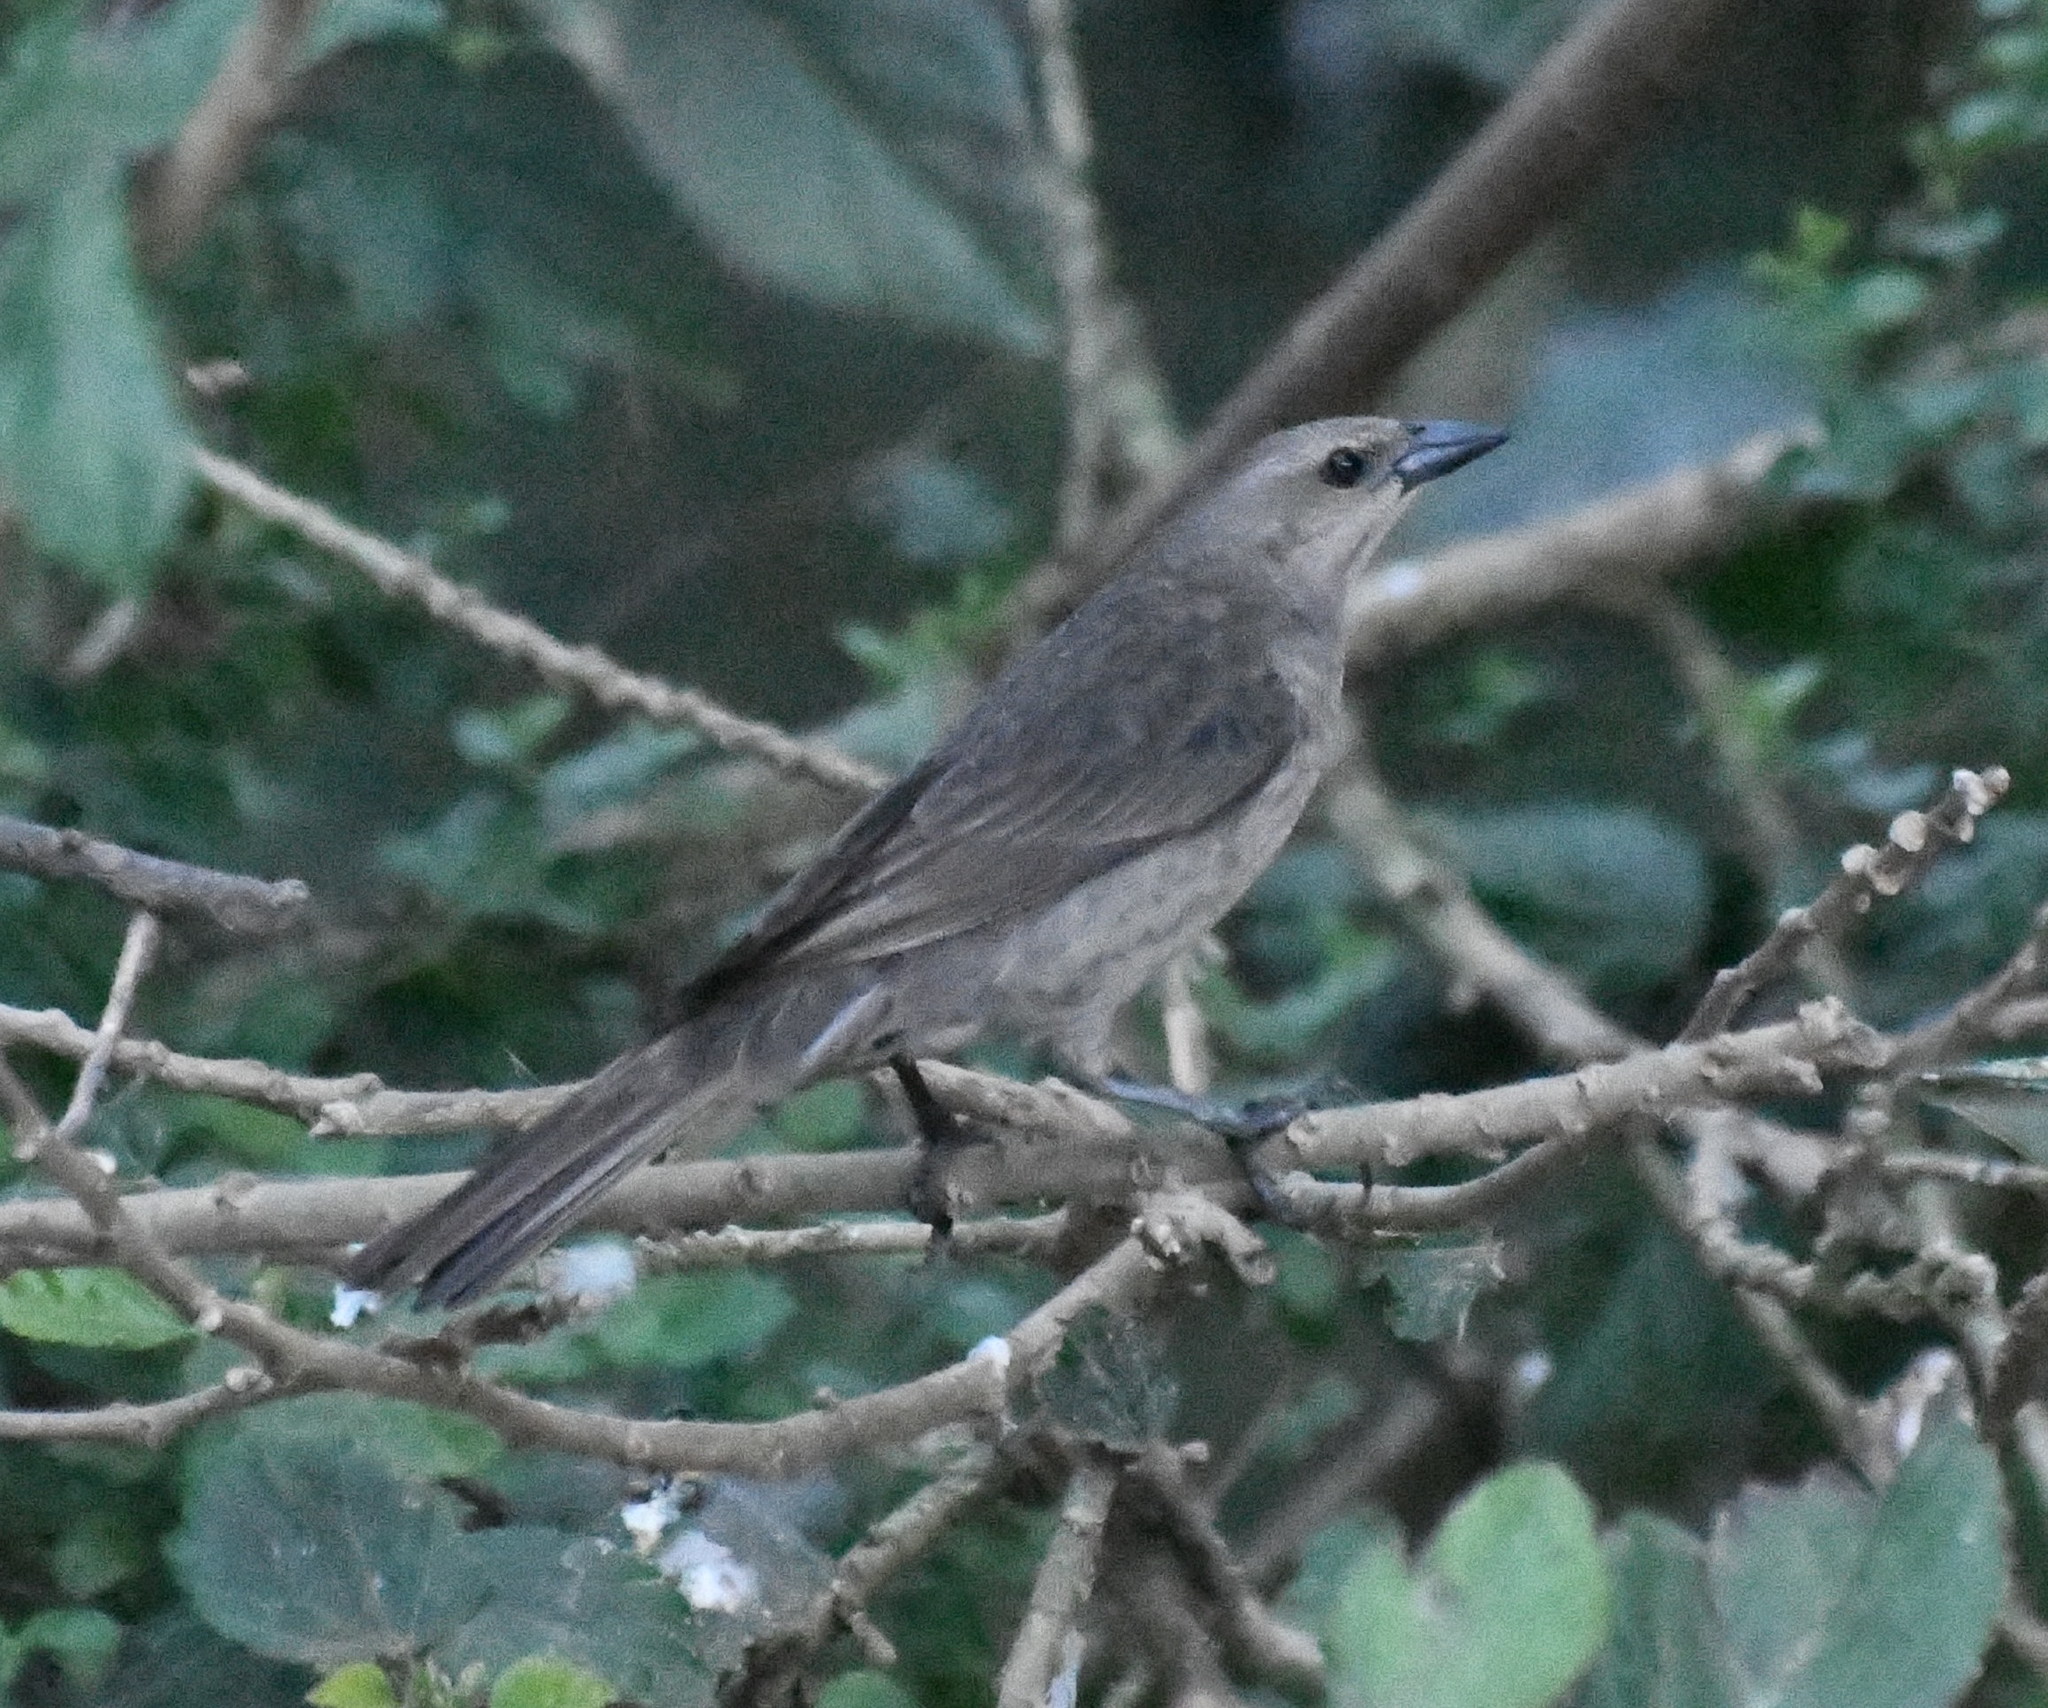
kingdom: Animalia
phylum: Chordata
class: Aves
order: Passeriformes
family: Icteridae
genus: Molothrus
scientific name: Molothrus bonariensis
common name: Shiny cowbird
